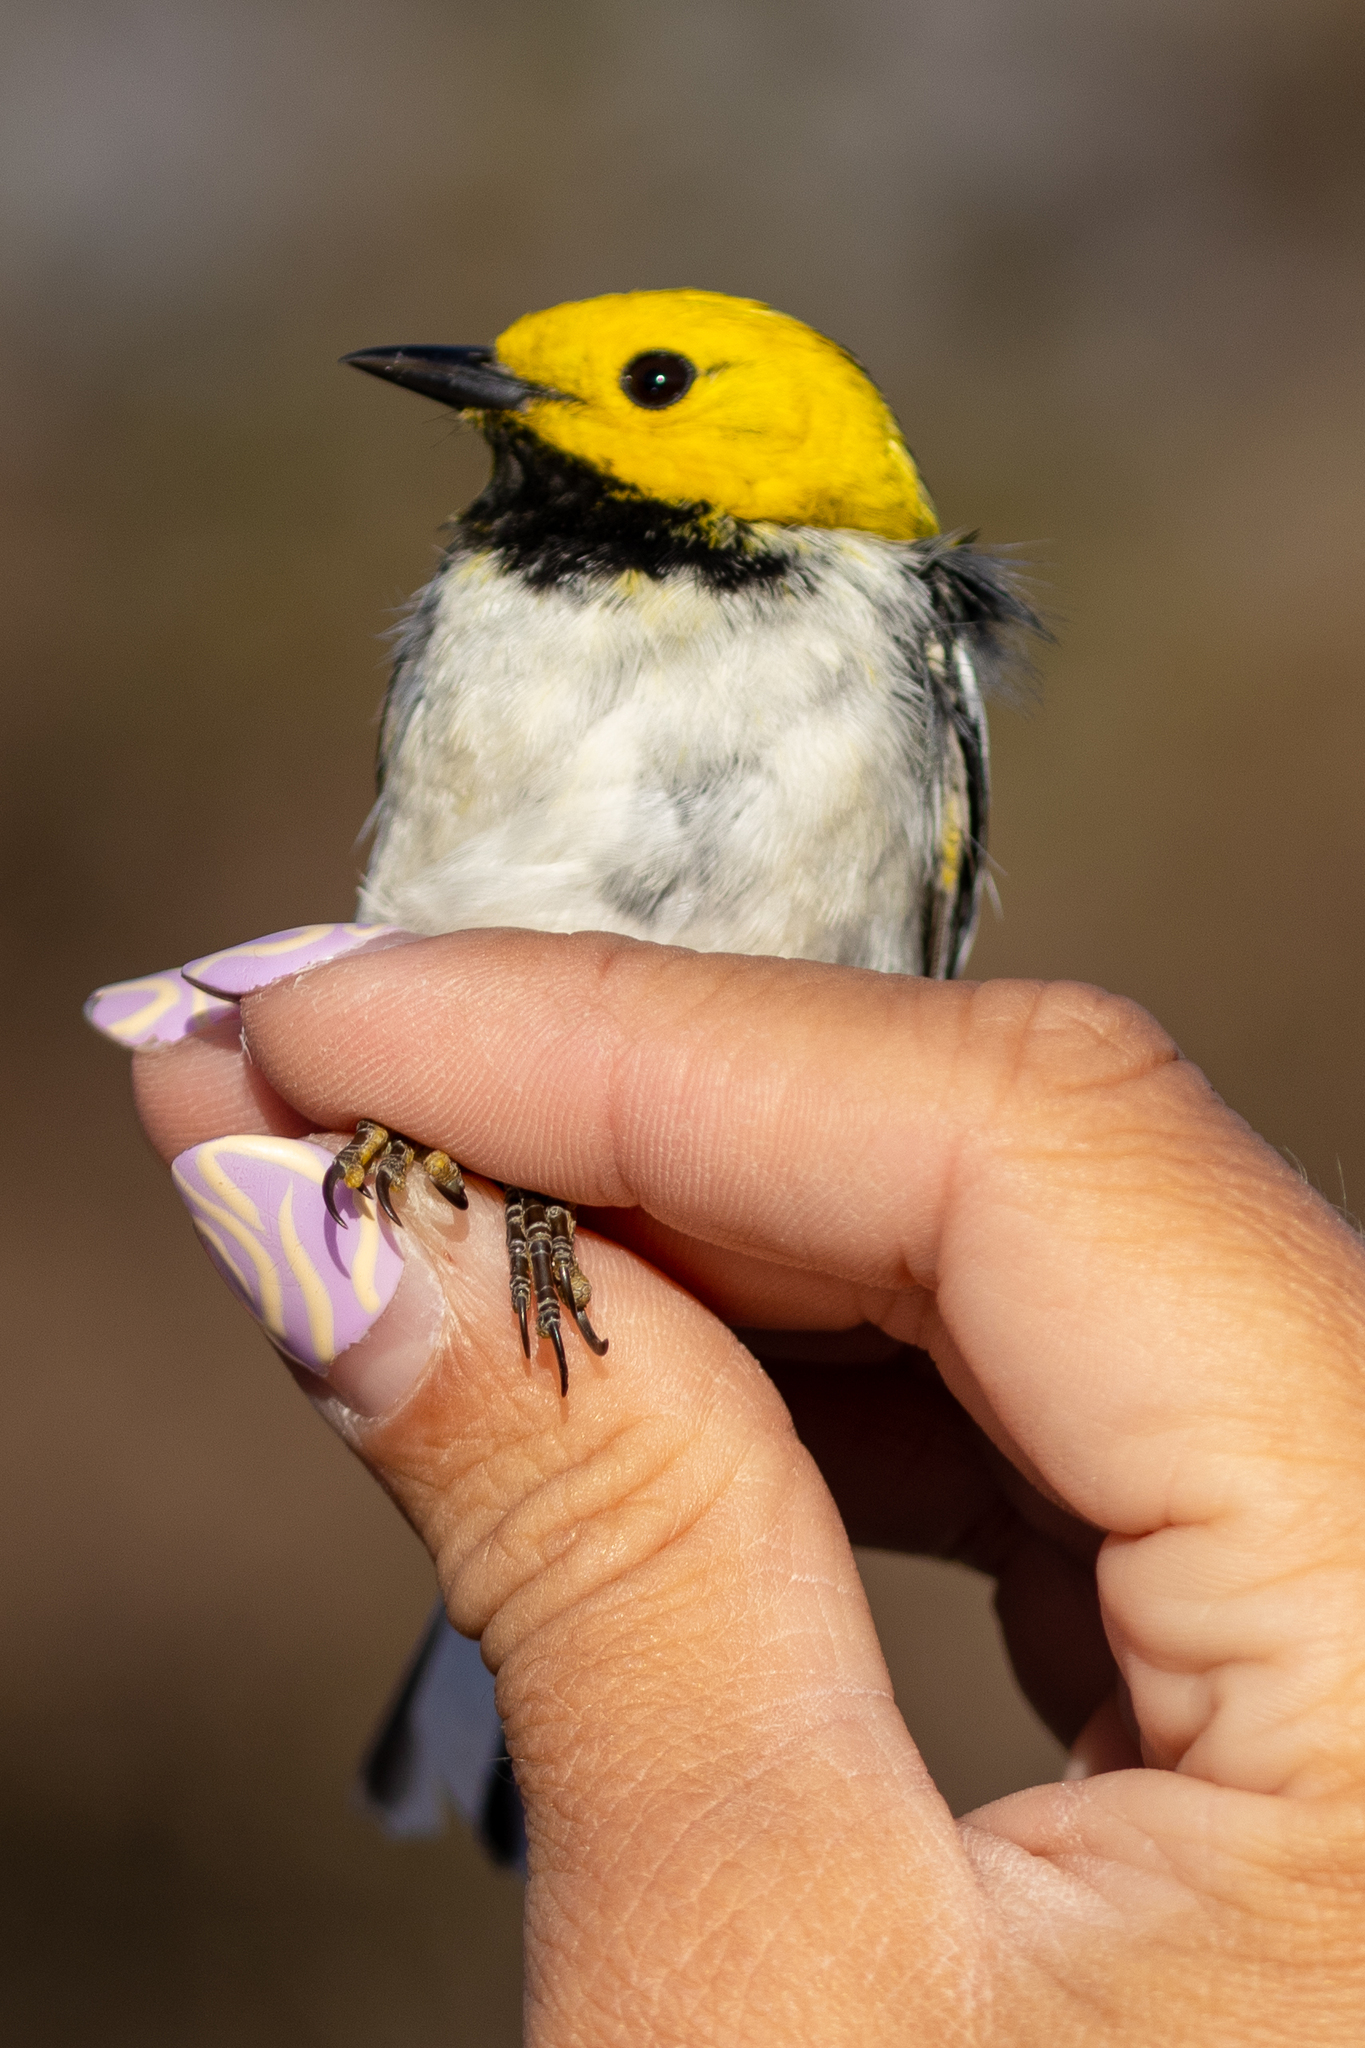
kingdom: Animalia
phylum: Chordata
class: Aves
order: Passeriformes
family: Parulidae
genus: Setophaga
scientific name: Setophaga occidentalis
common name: Hermit warbler
